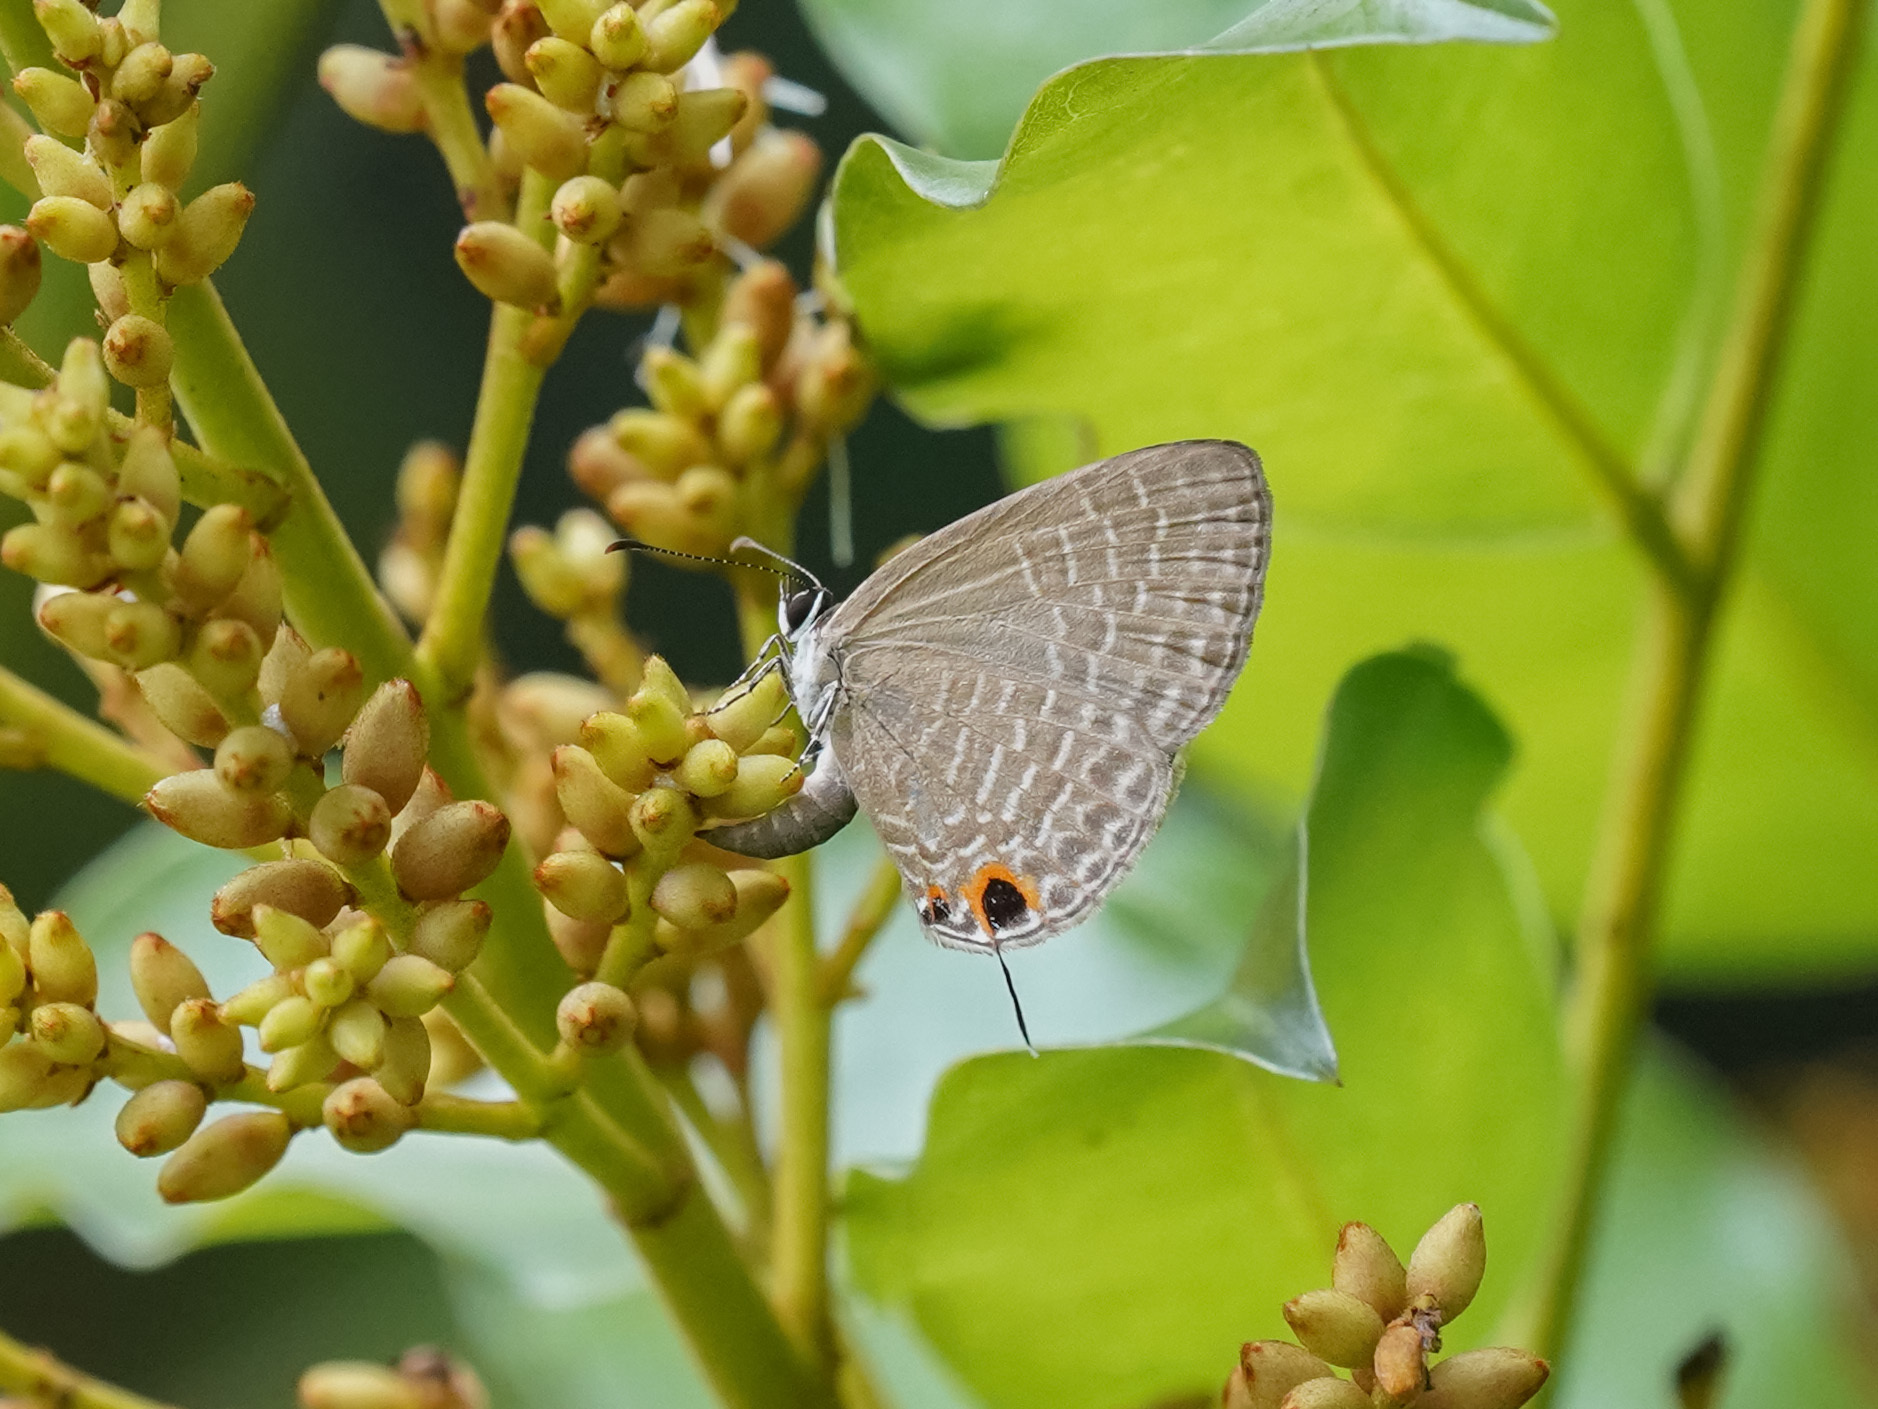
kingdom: Animalia
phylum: Arthropoda
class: Insecta
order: Lepidoptera
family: Lycaenidae
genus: Jamides
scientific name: Jamides bochus
